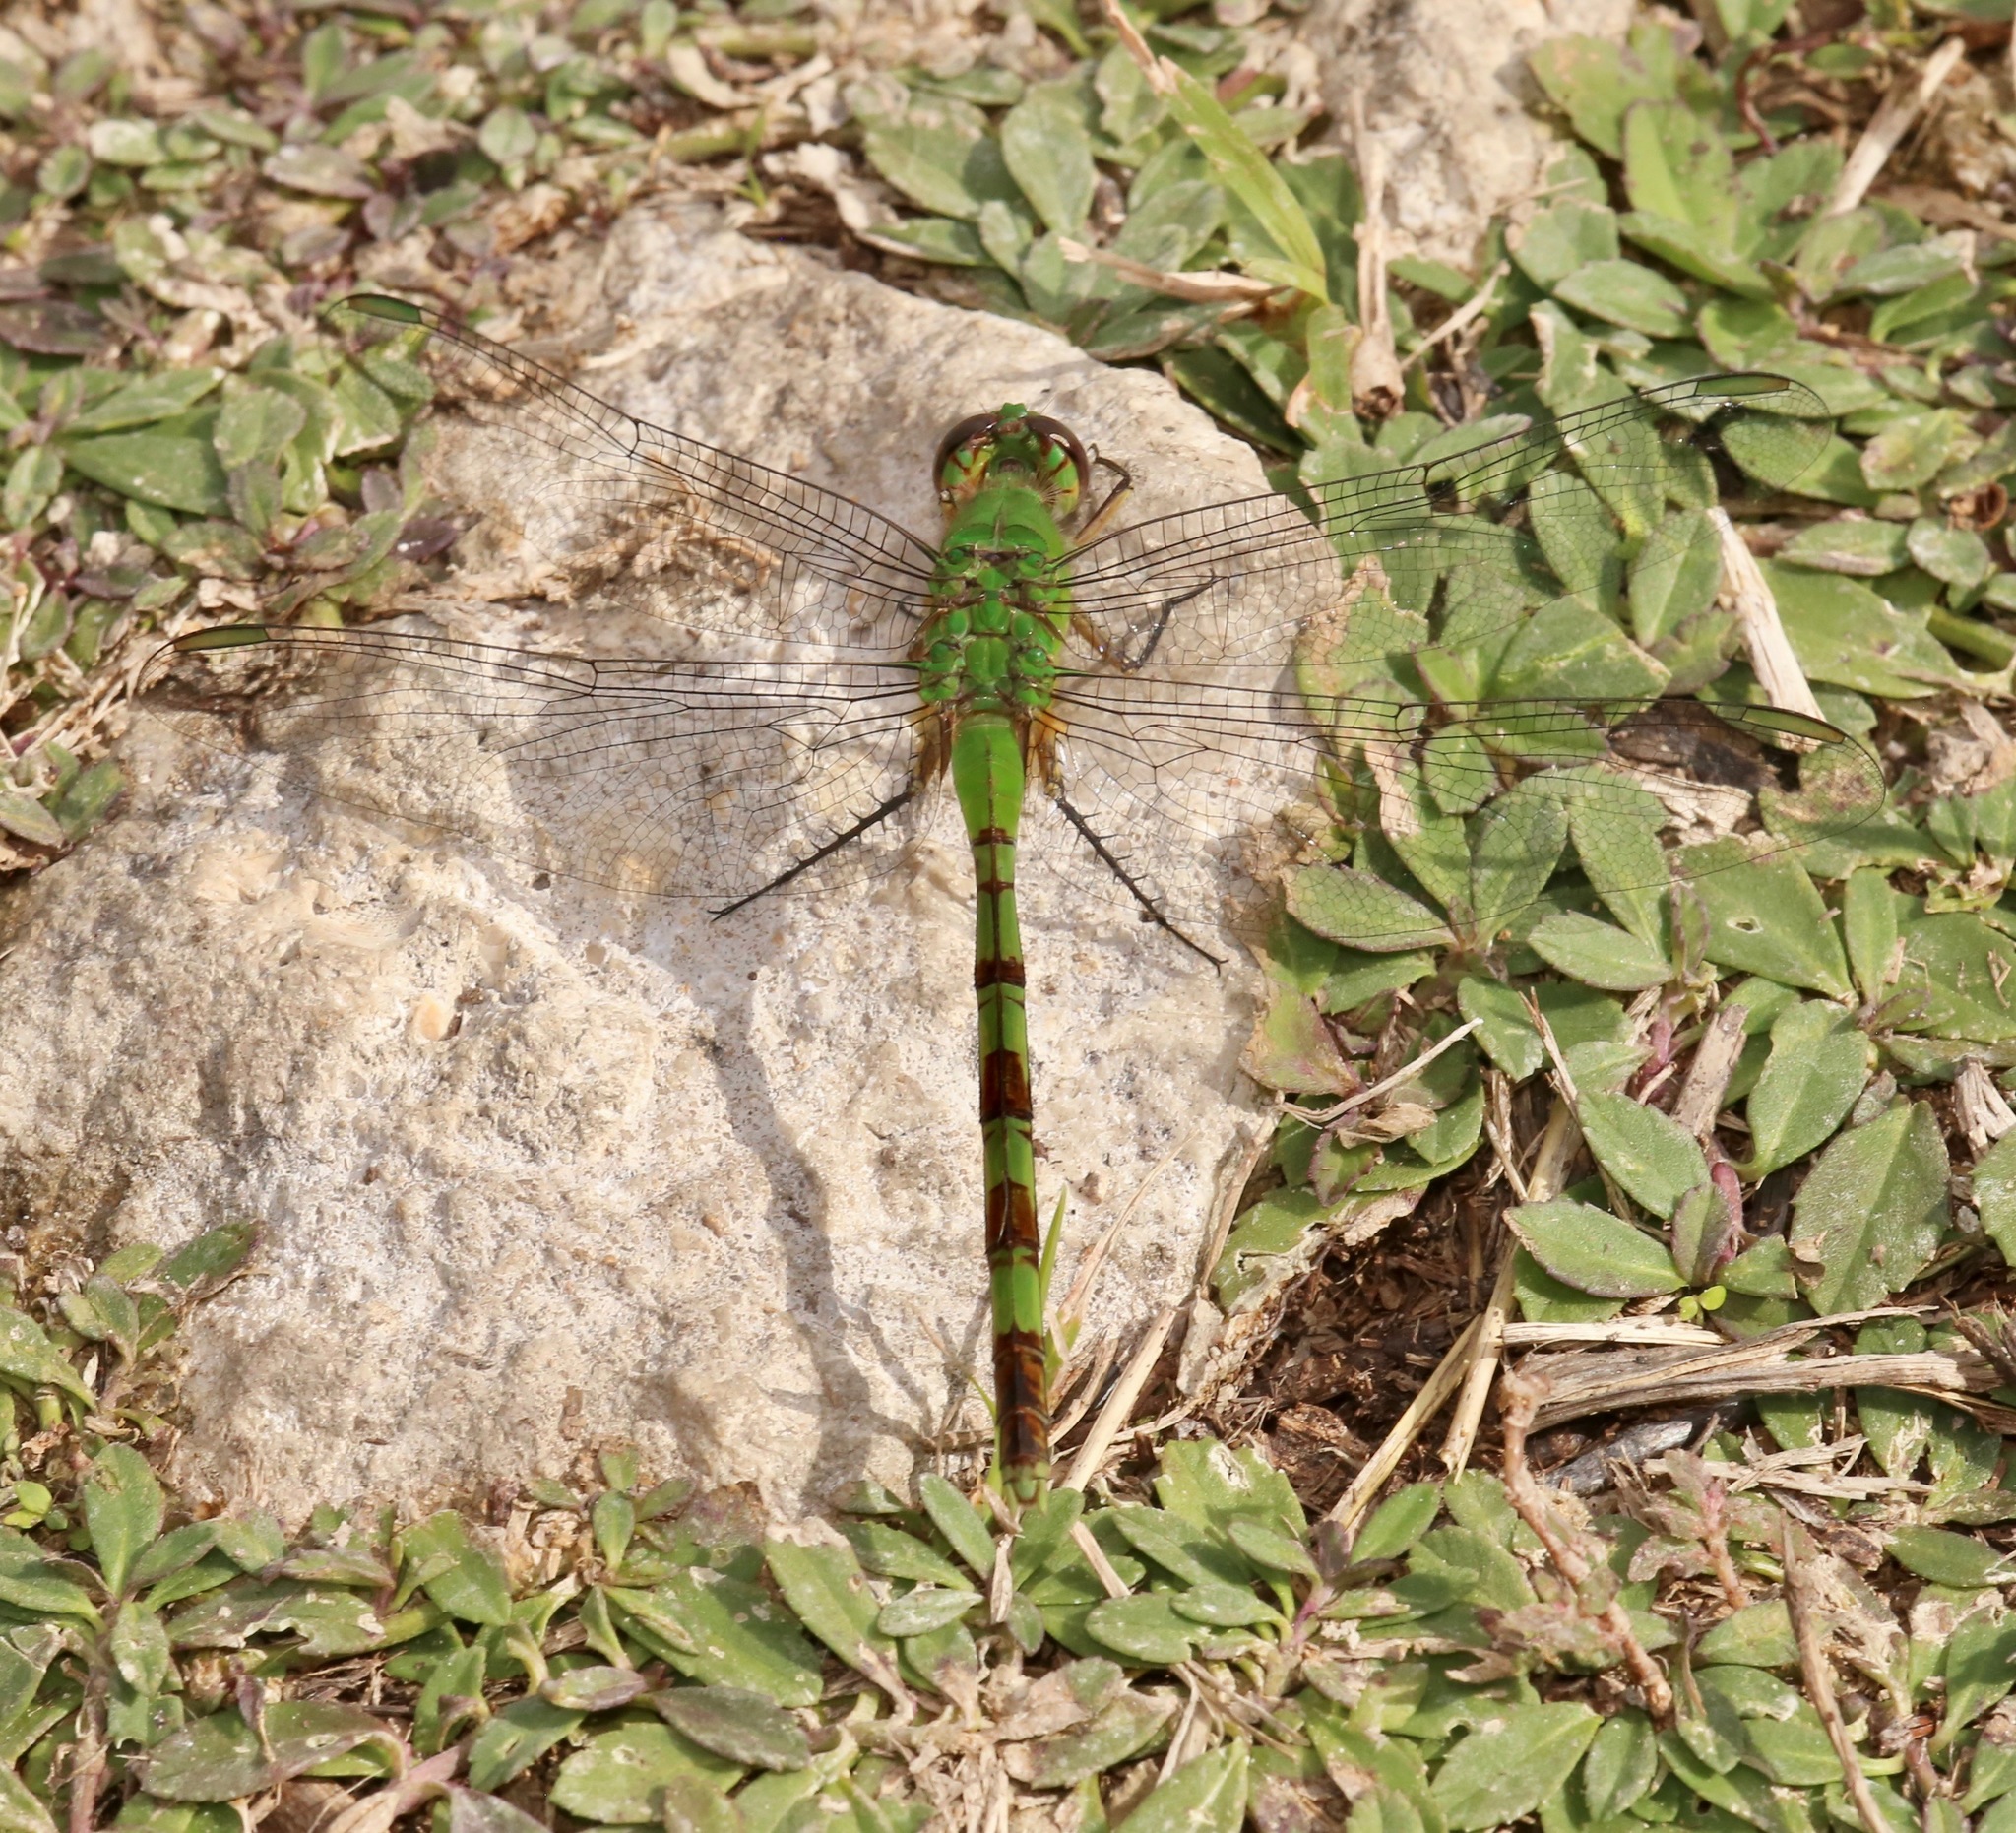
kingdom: Animalia
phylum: Arthropoda
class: Insecta
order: Odonata
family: Libellulidae
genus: Erythemis
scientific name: Erythemis vesiculosa
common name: Great pondhawk
